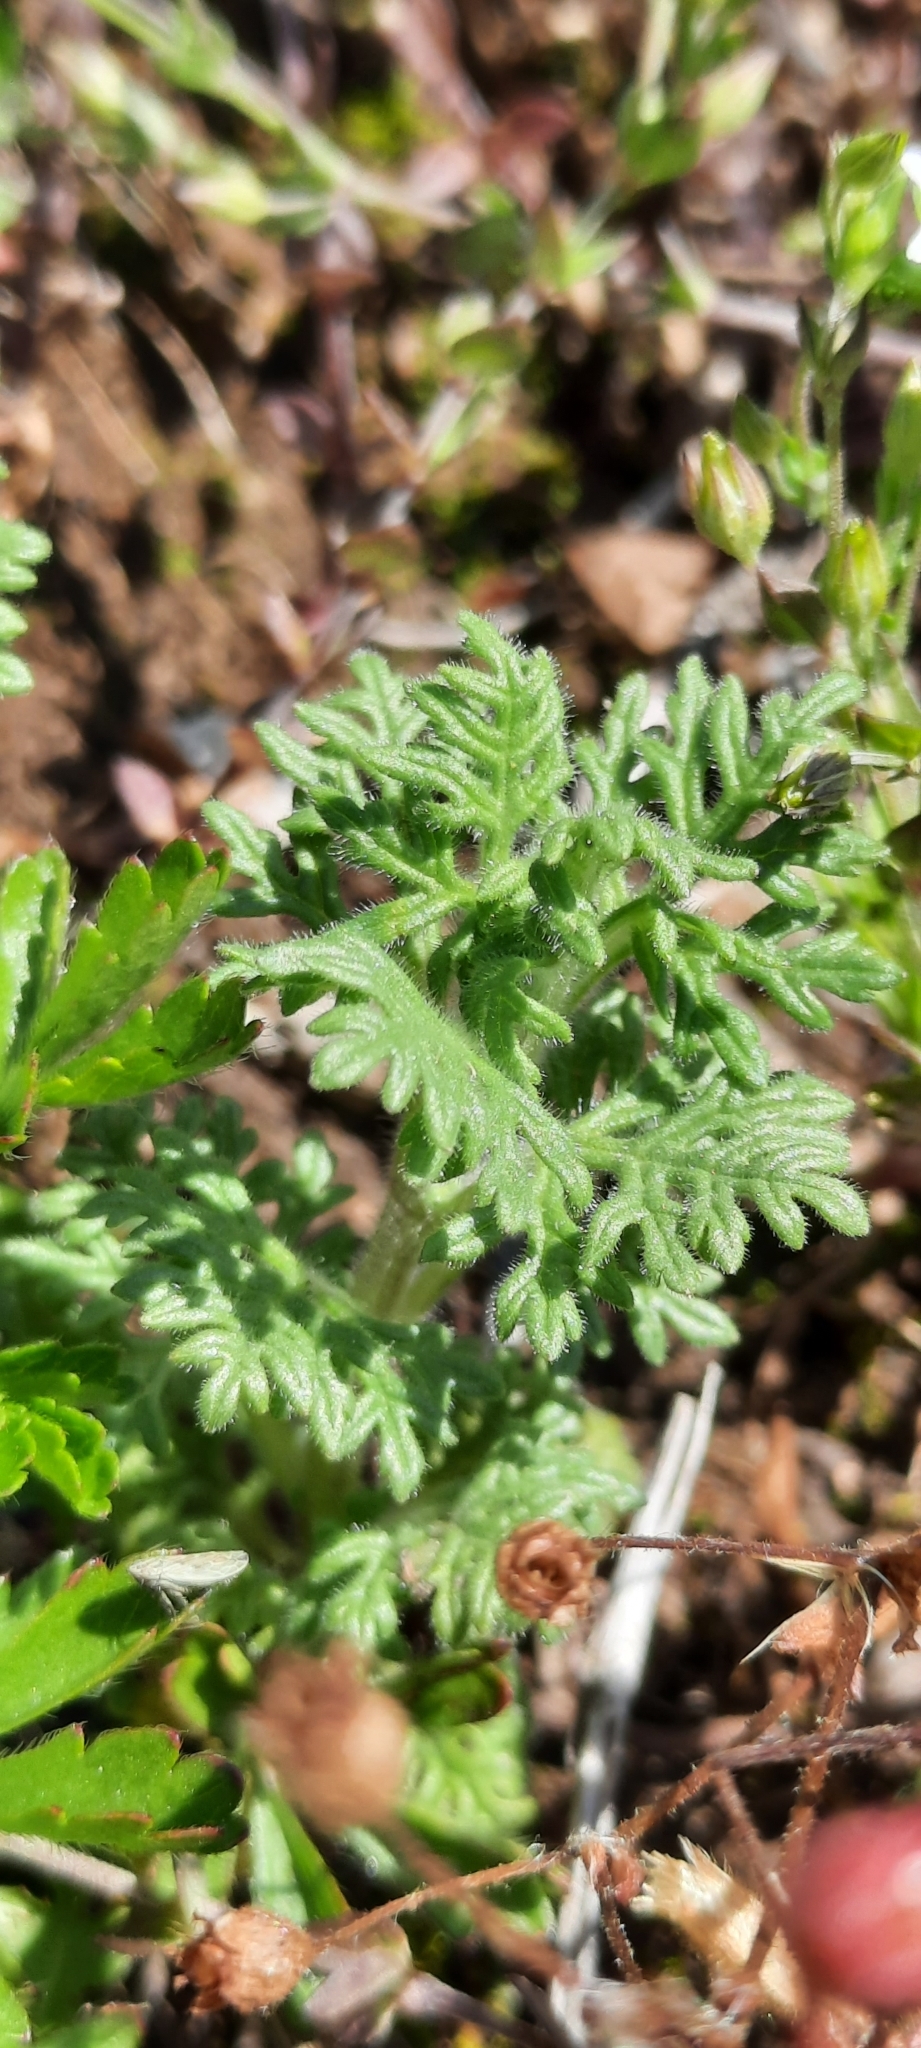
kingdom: Plantae
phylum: Tracheophyta
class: Magnoliopsida
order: Lamiales
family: Lamiaceae
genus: Teucrium
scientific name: Teucrium botrys
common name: Cut-leaved germander
